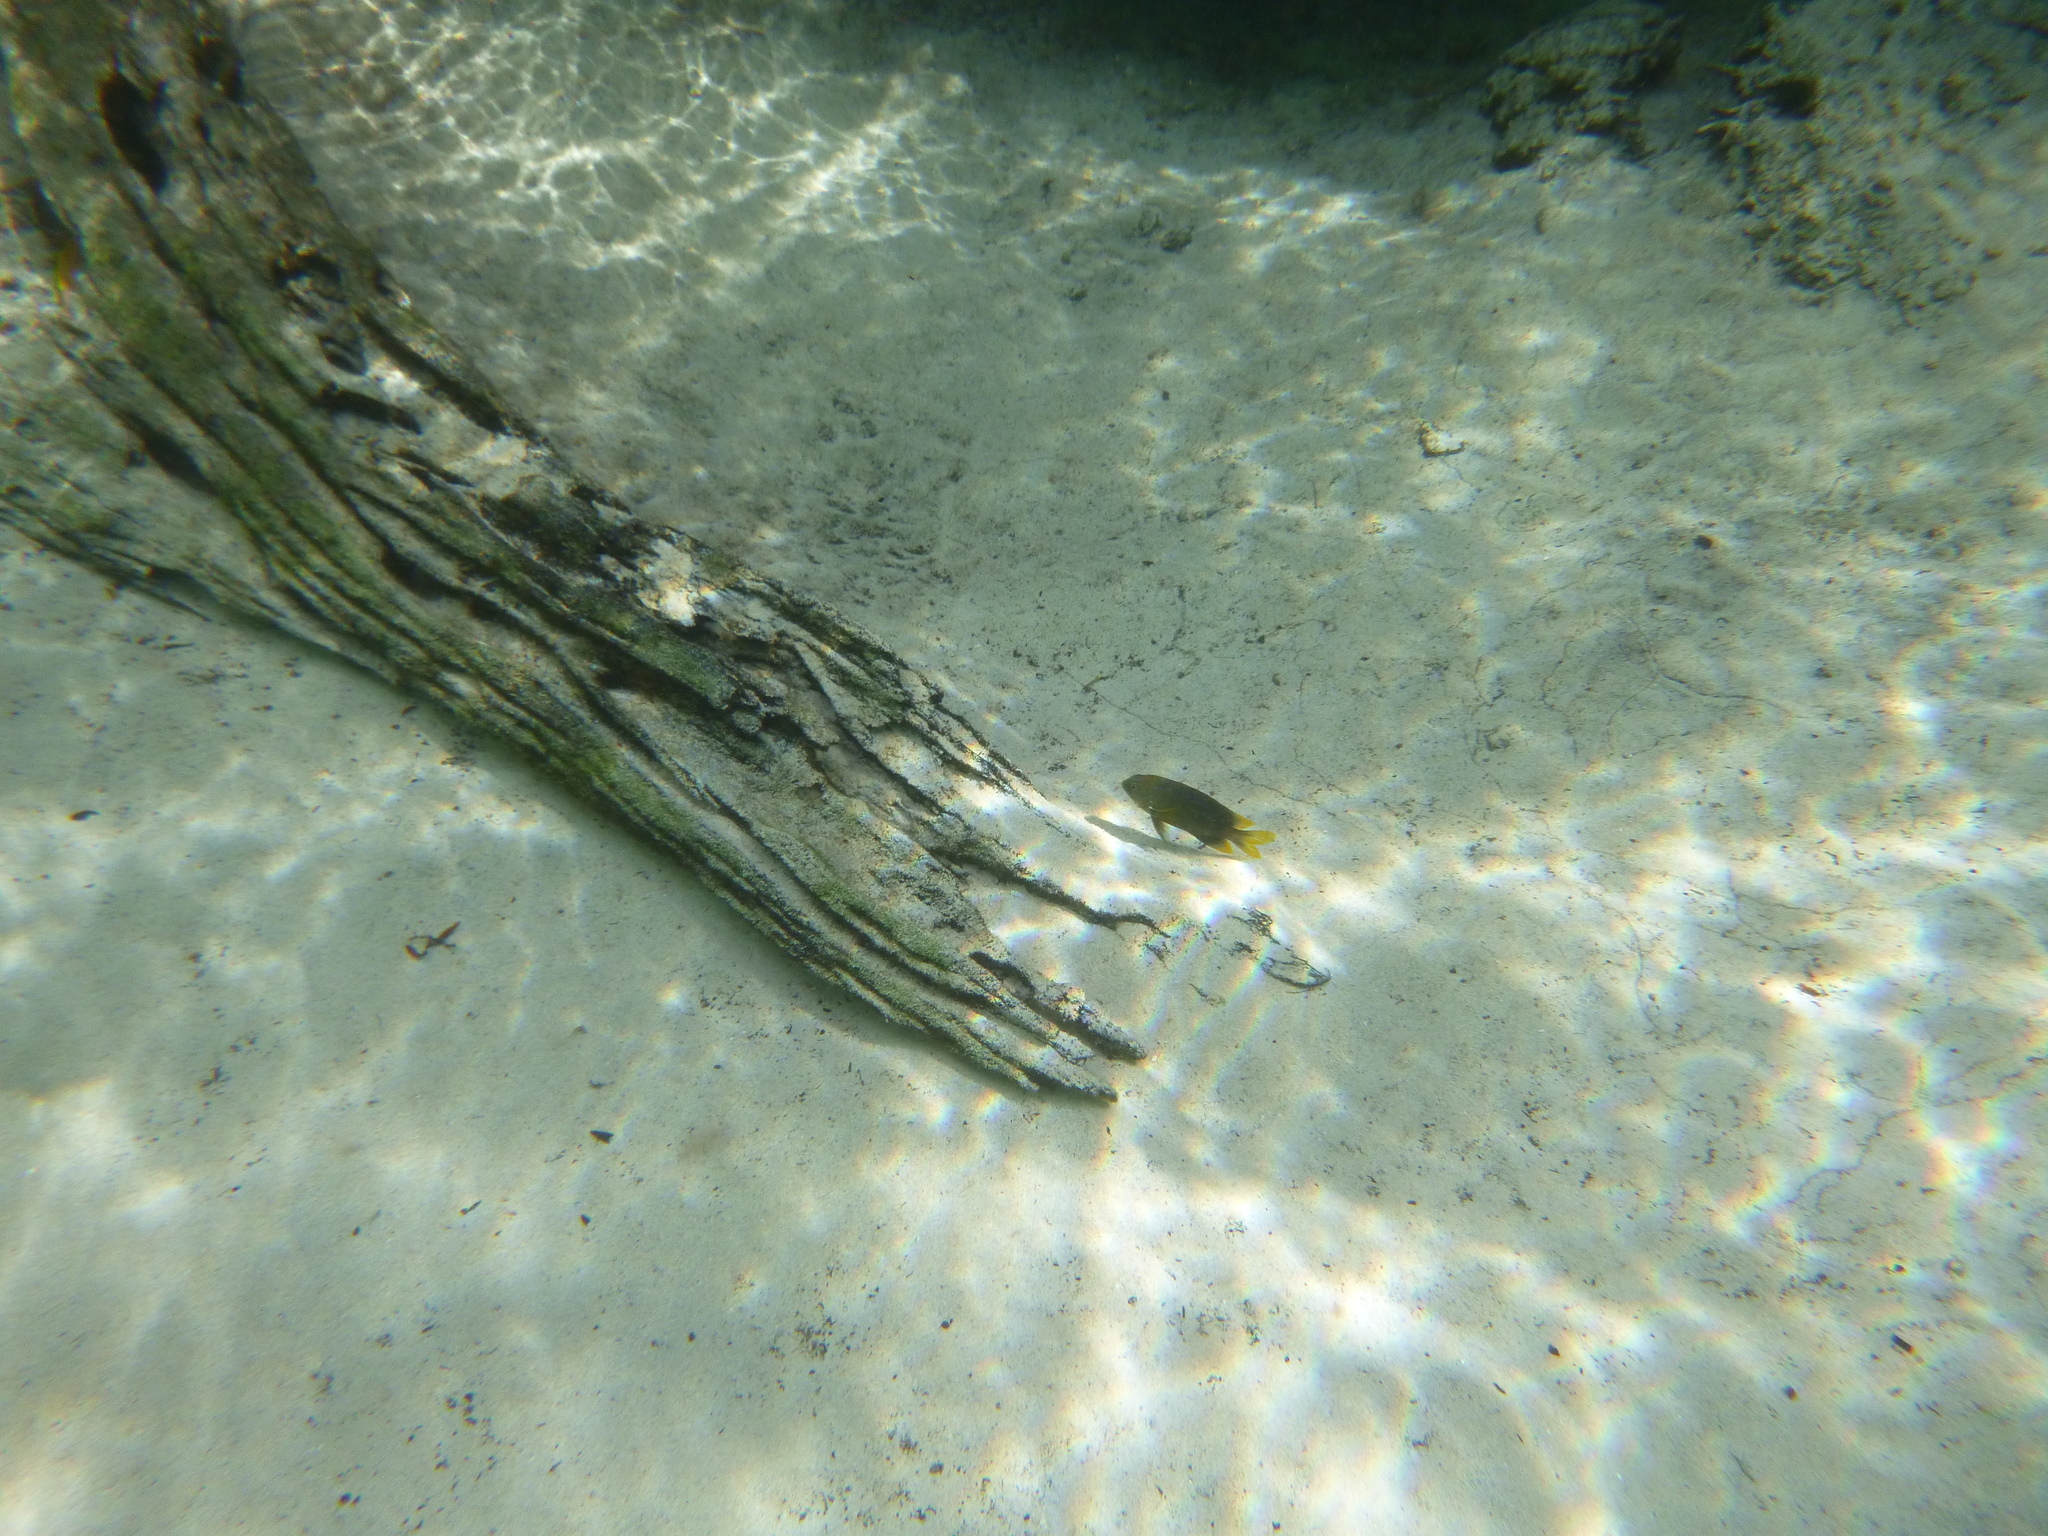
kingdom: Animalia
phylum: Chordata
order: Perciformes
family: Pomacentridae
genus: Stegastes
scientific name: Stegastes otophorus
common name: Freshwater gregory
